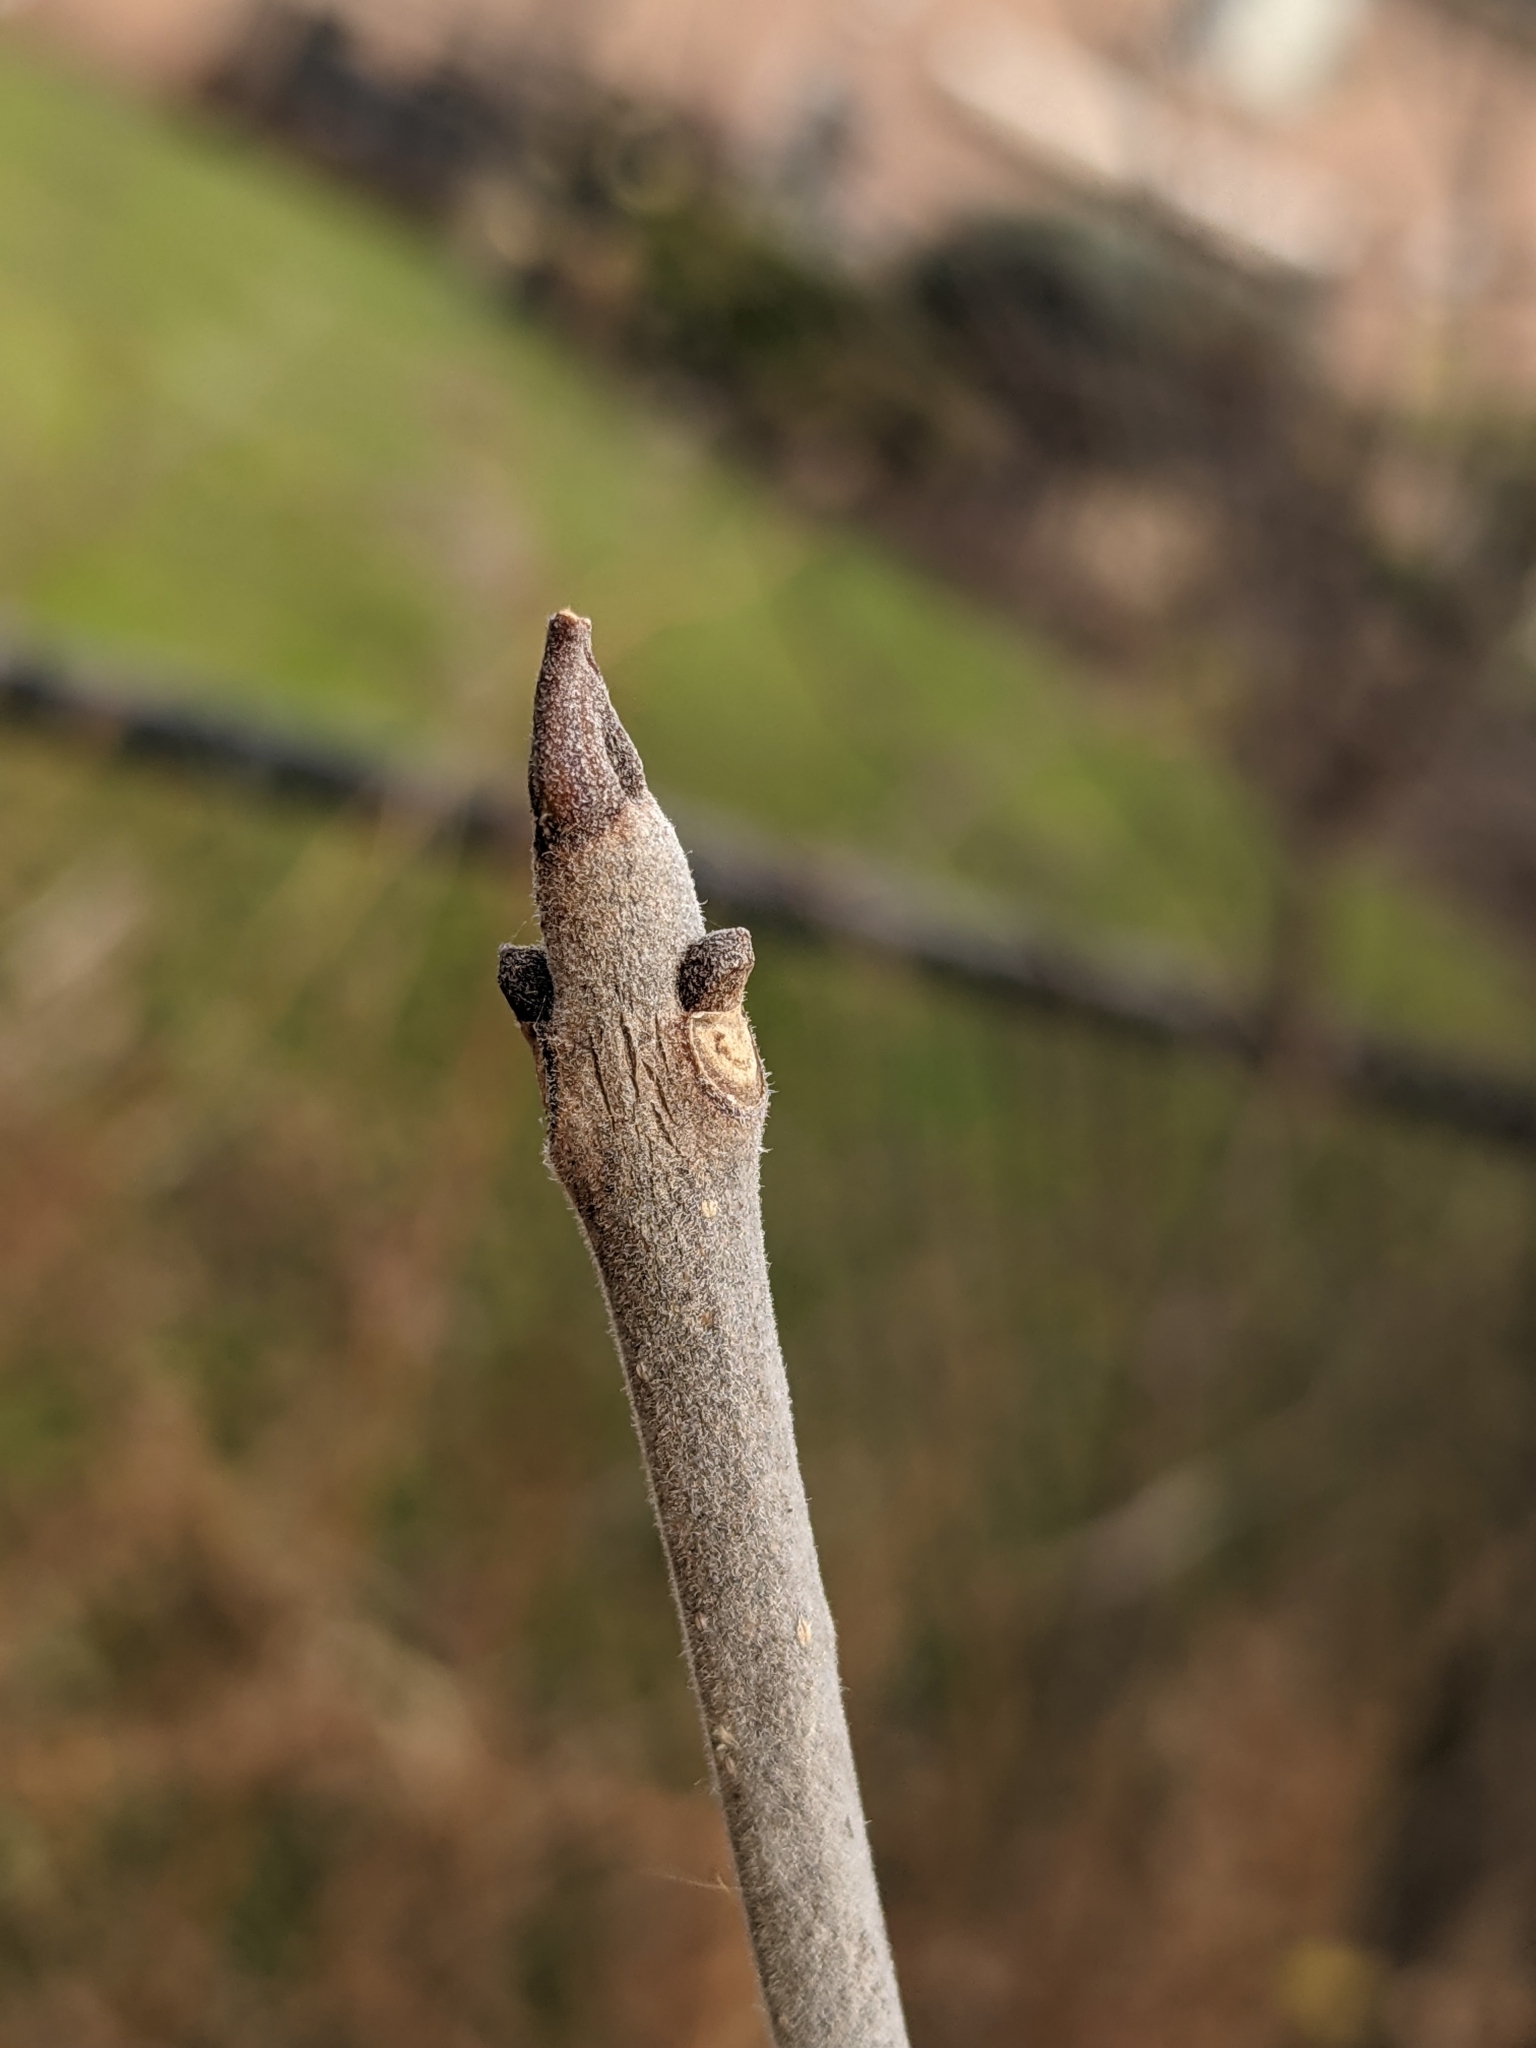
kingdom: Plantae
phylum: Tracheophyta
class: Magnoliopsida
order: Lamiales
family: Oleaceae
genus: Fraxinus
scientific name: Fraxinus pennsylvanica
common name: Green ash
